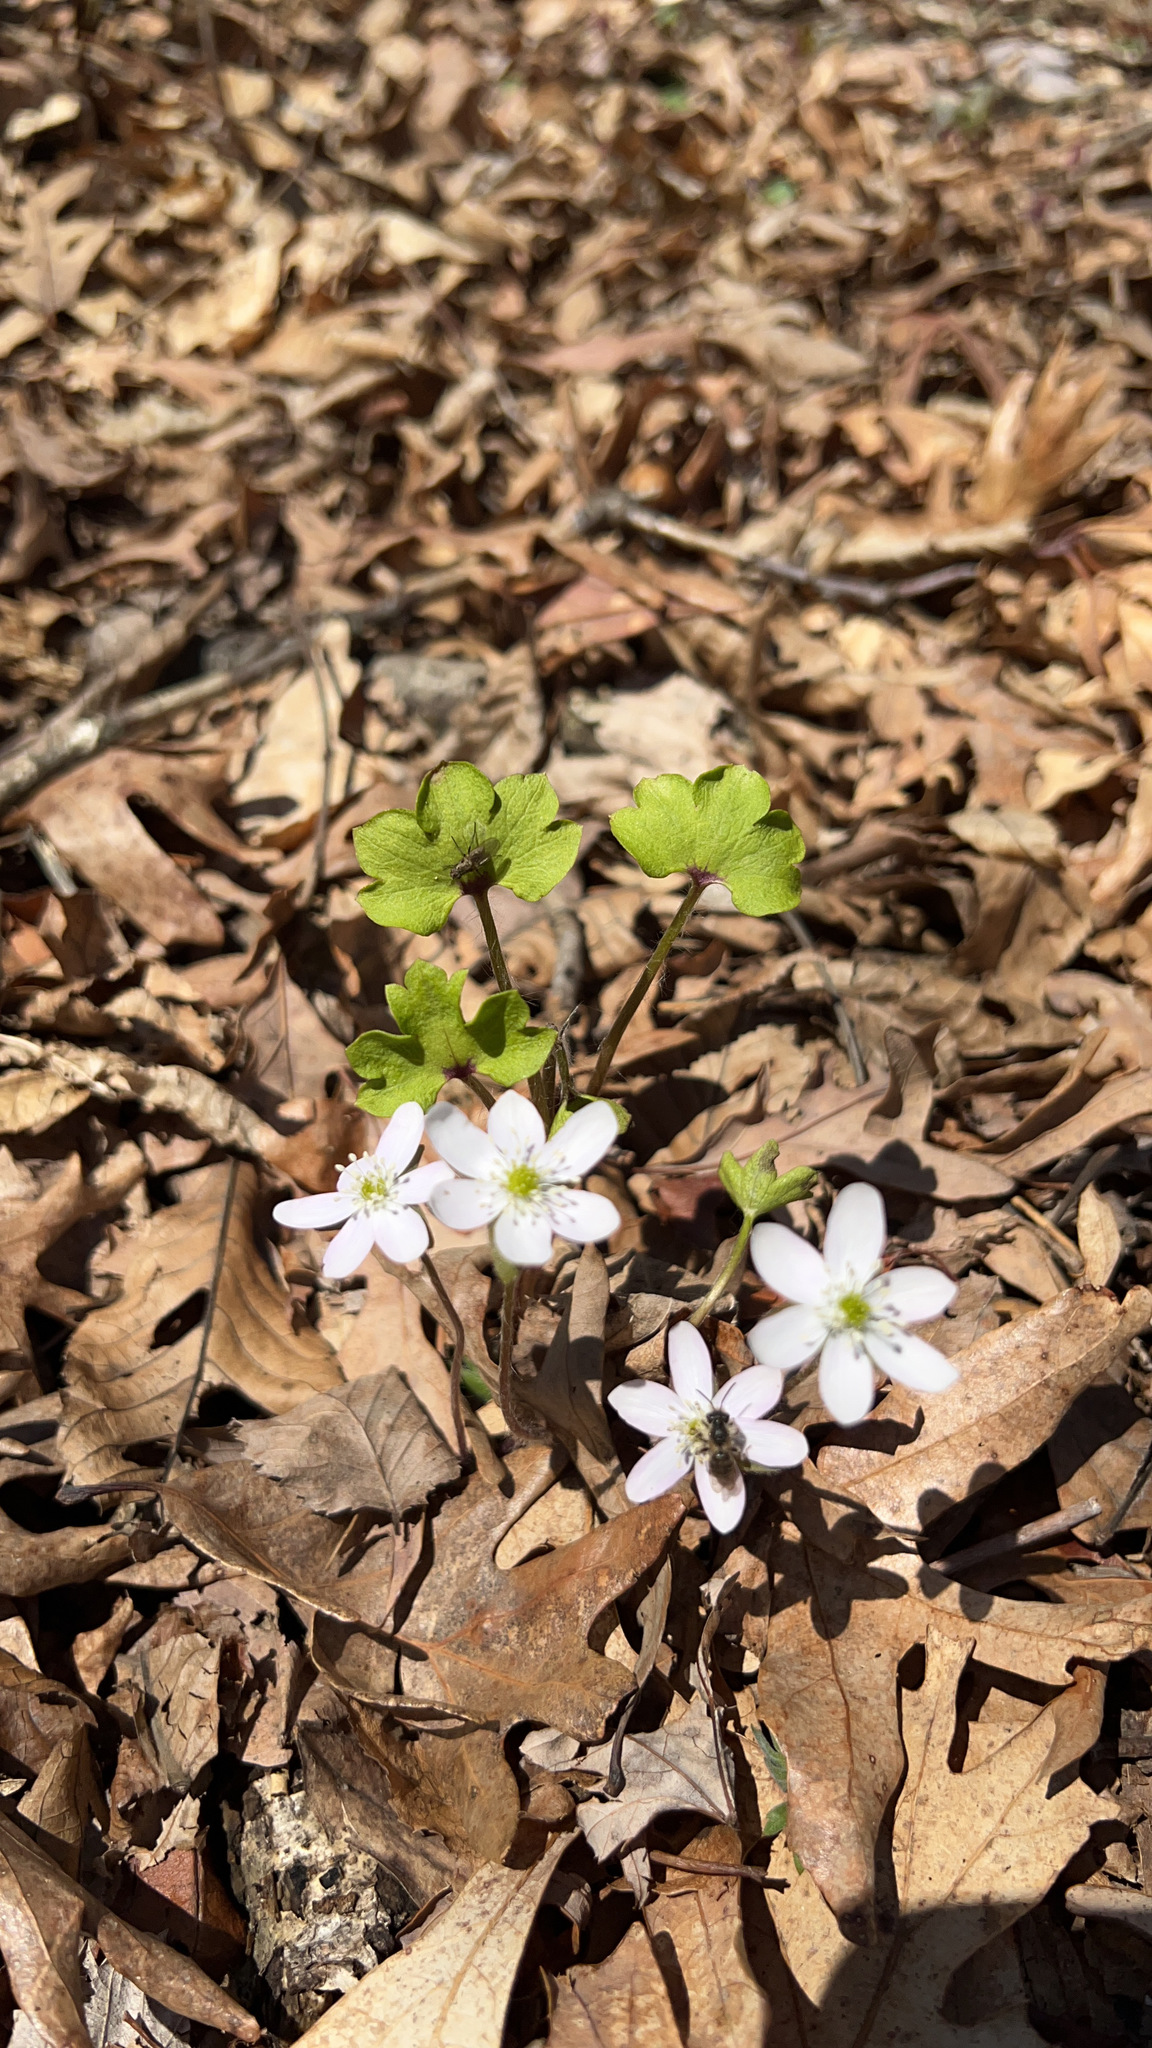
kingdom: Plantae
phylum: Tracheophyta
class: Magnoliopsida
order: Ranunculales
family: Ranunculaceae
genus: Hepatica
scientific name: Hepatica acutiloba
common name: Sharp-lobed hepatica
